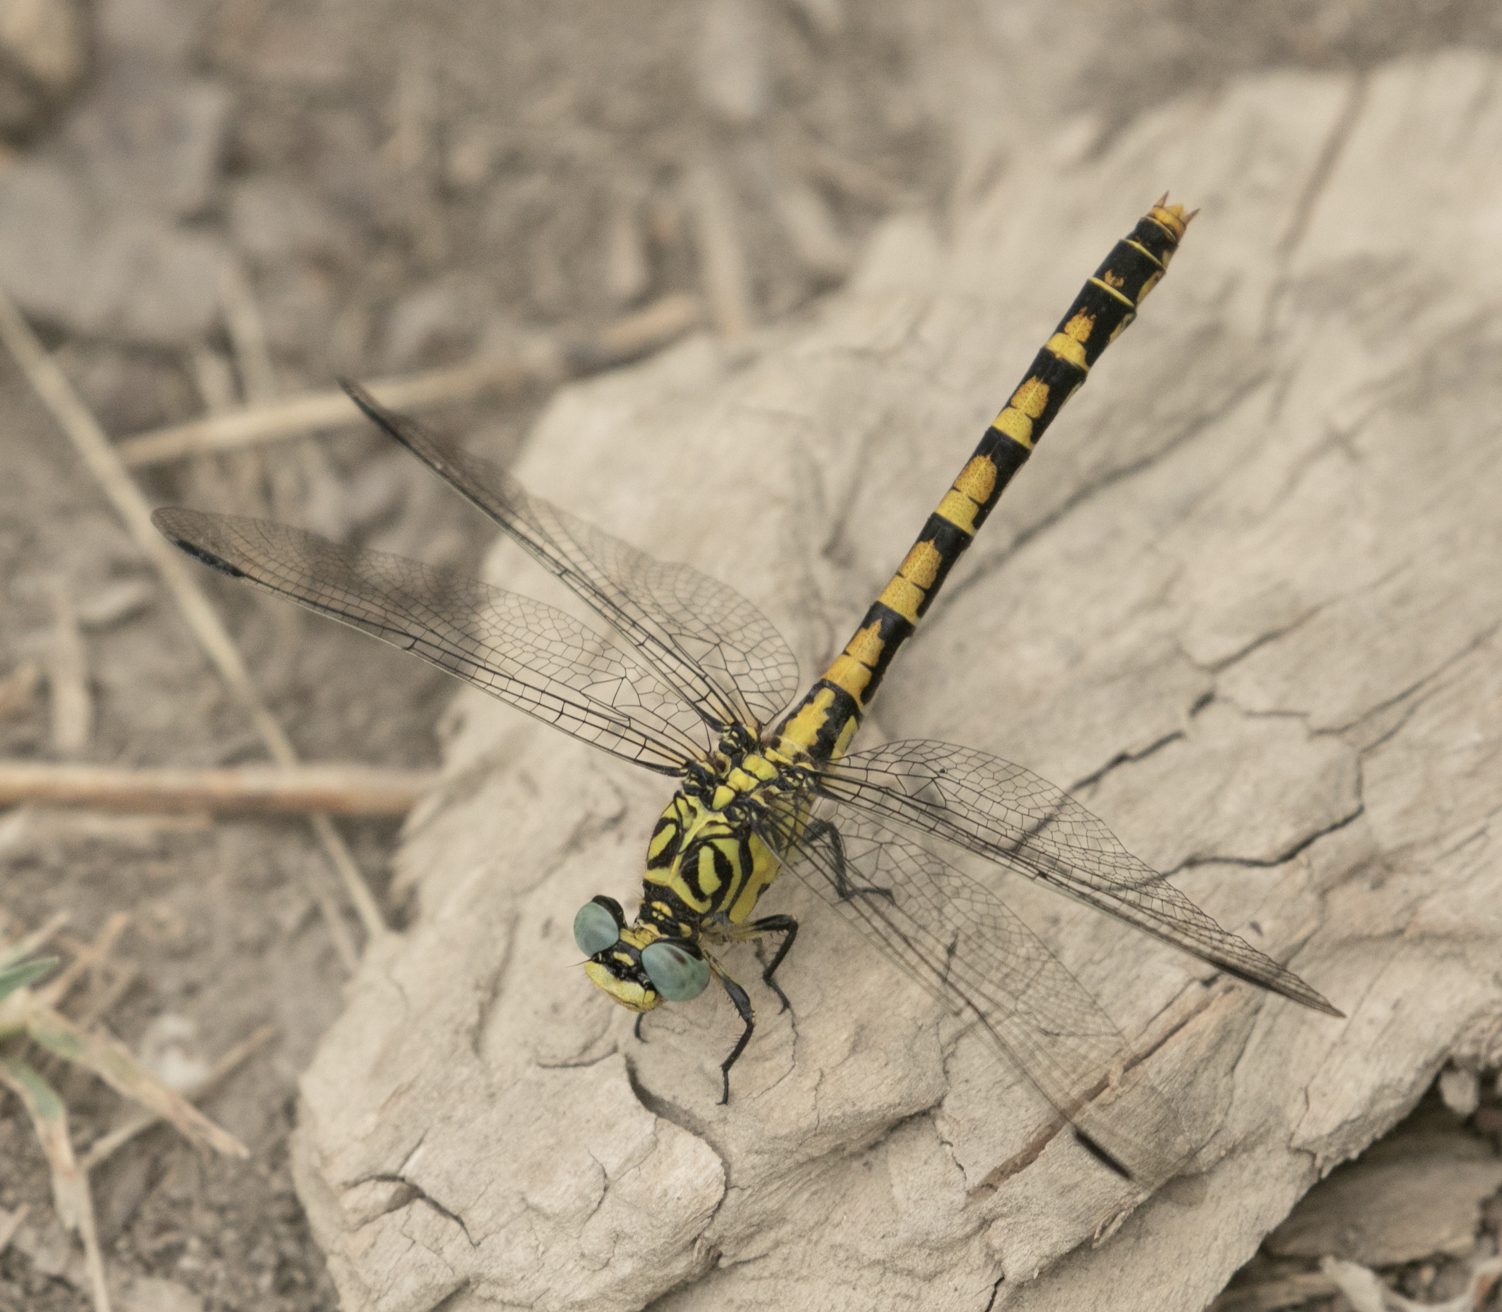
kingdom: Animalia
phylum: Arthropoda
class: Insecta
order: Odonata
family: Gomphidae
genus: Onychogomphus
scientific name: Onychogomphus forcipatus
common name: Small pincertail
